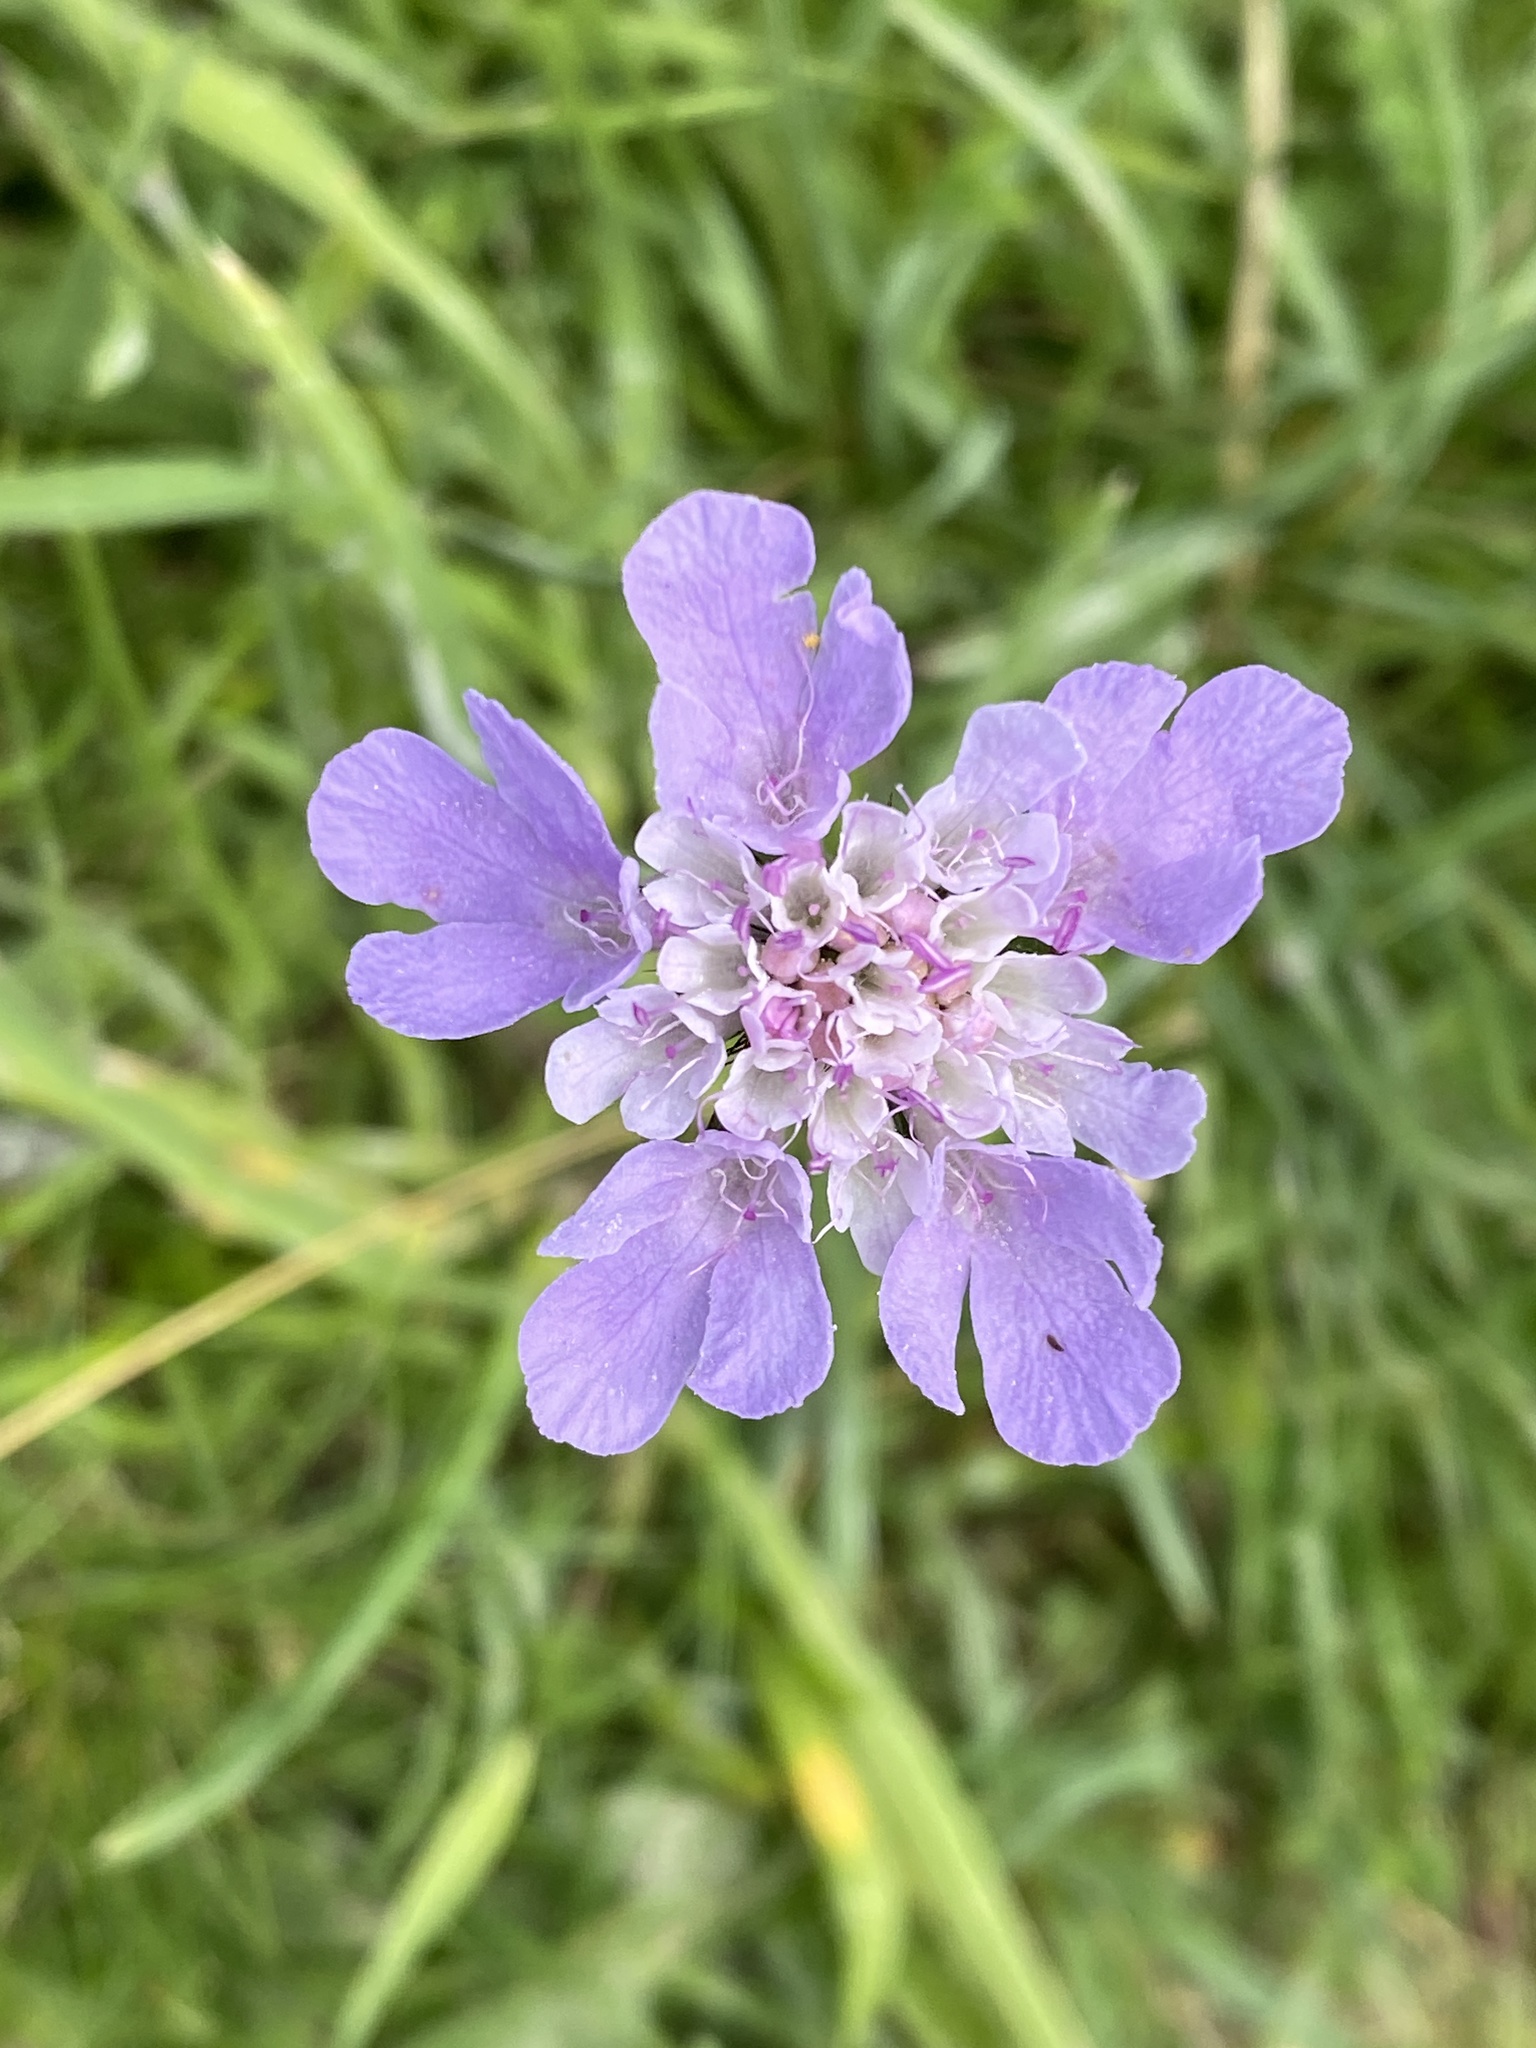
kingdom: Plantae
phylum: Tracheophyta
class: Magnoliopsida
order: Dipsacales
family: Caprifoliaceae
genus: Scabiosa
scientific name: Scabiosa columbaria
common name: Small scabious
